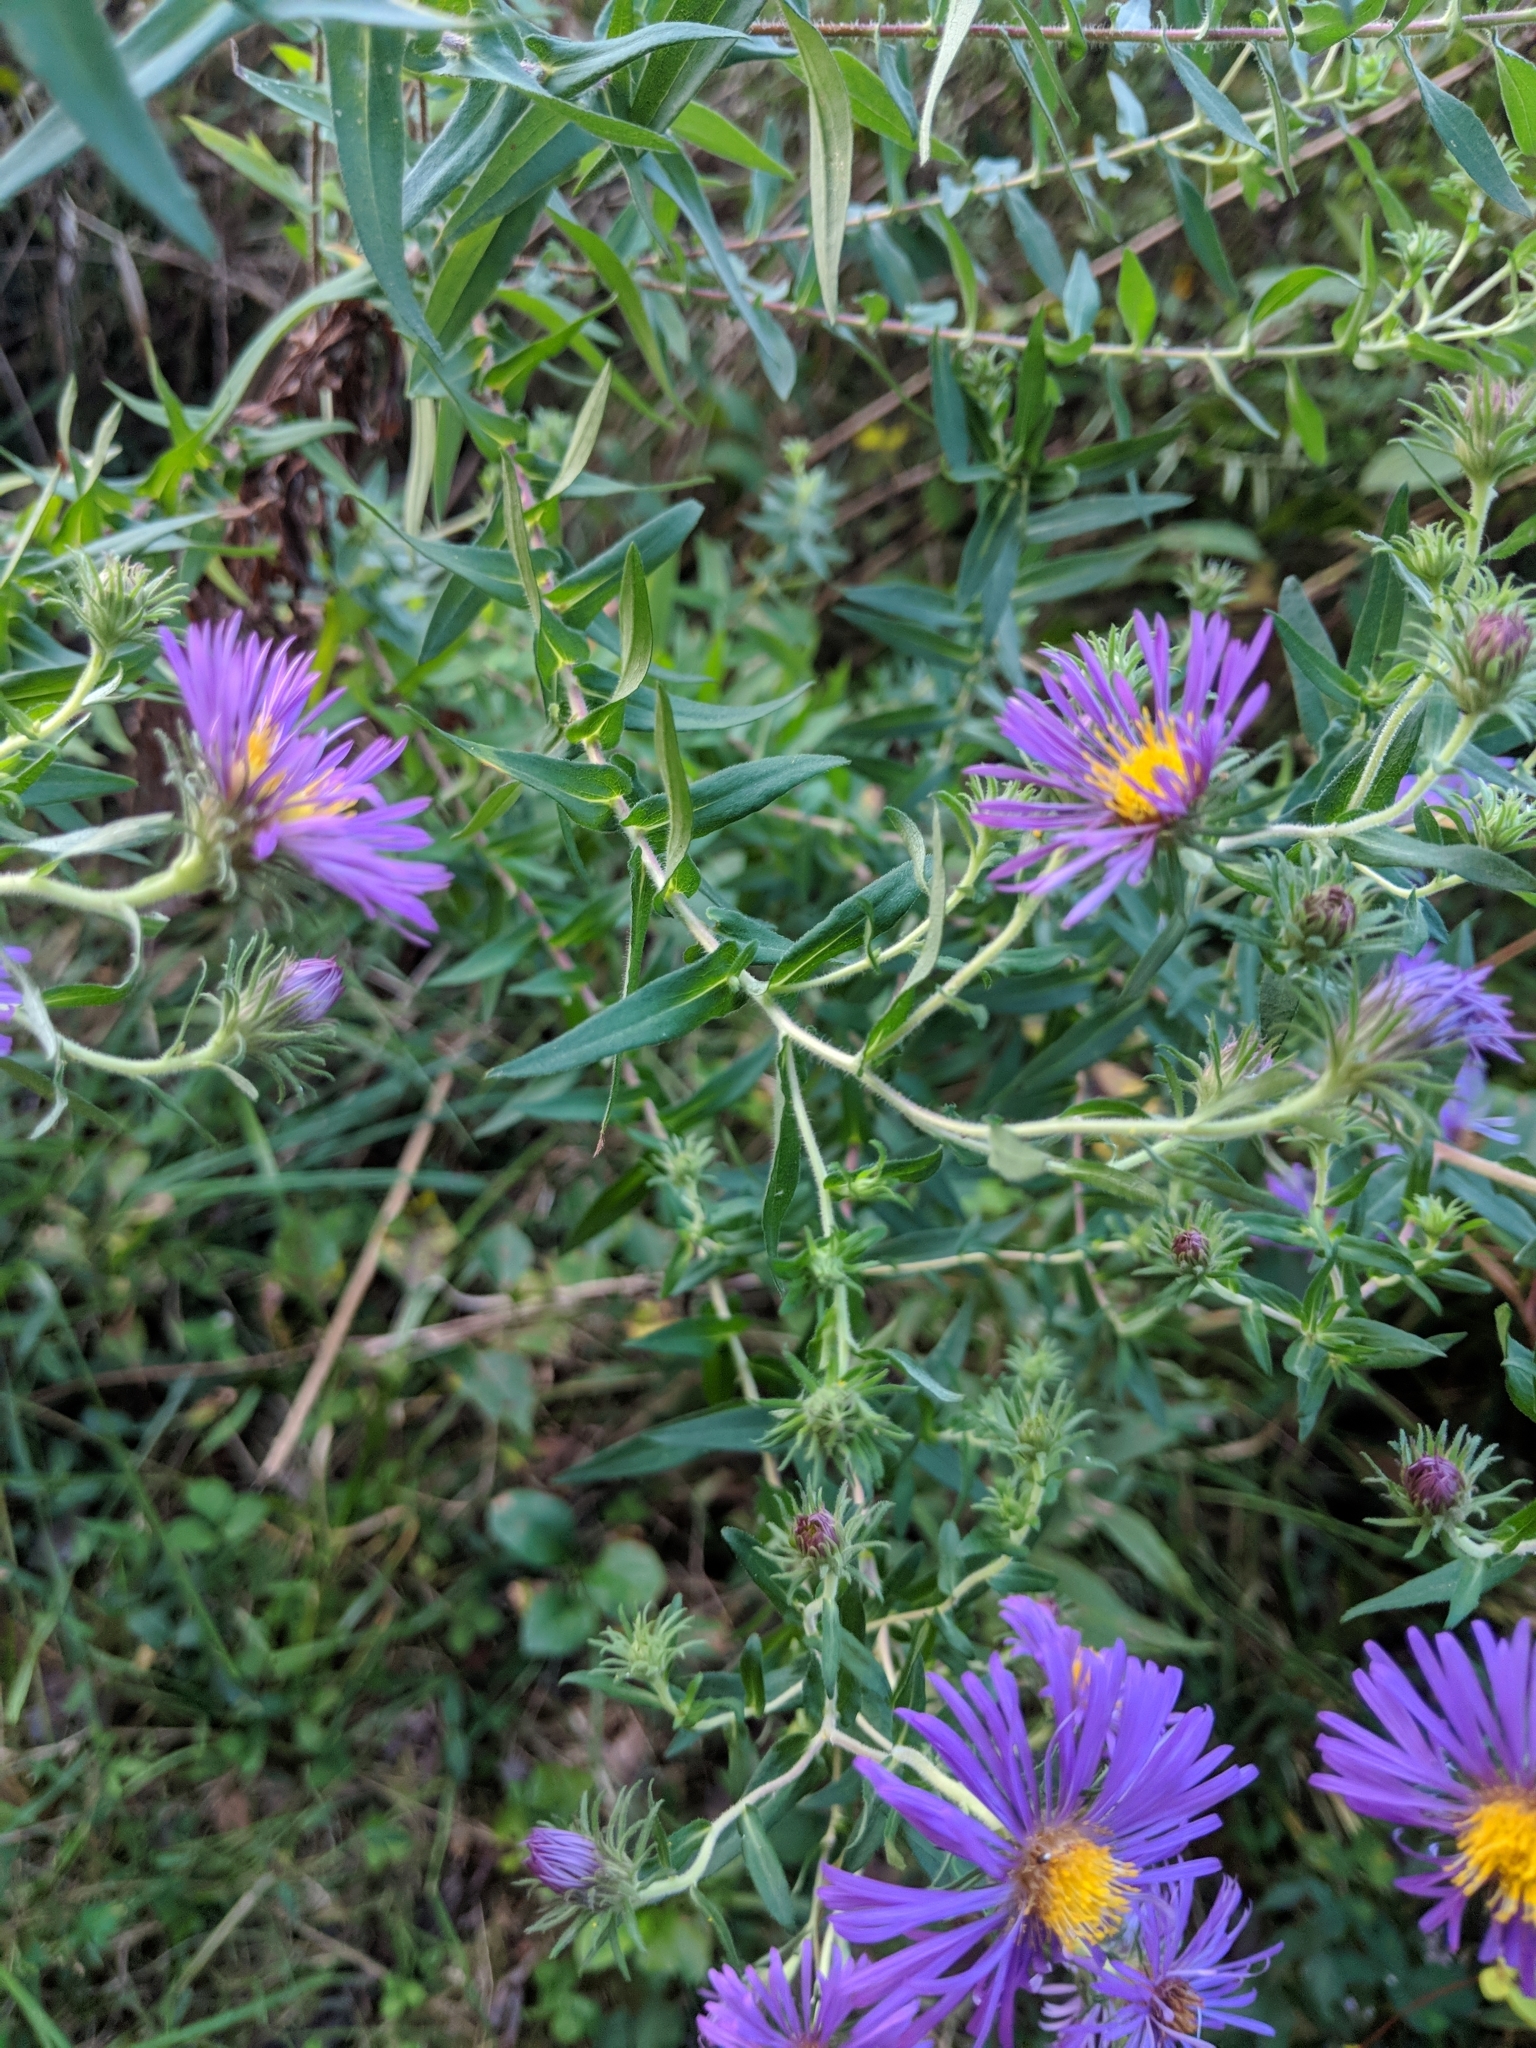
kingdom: Plantae
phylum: Tracheophyta
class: Magnoliopsida
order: Asterales
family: Asteraceae
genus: Symphyotrichum
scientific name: Symphyotrichum novae-angliae
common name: Michaelmas daisy
